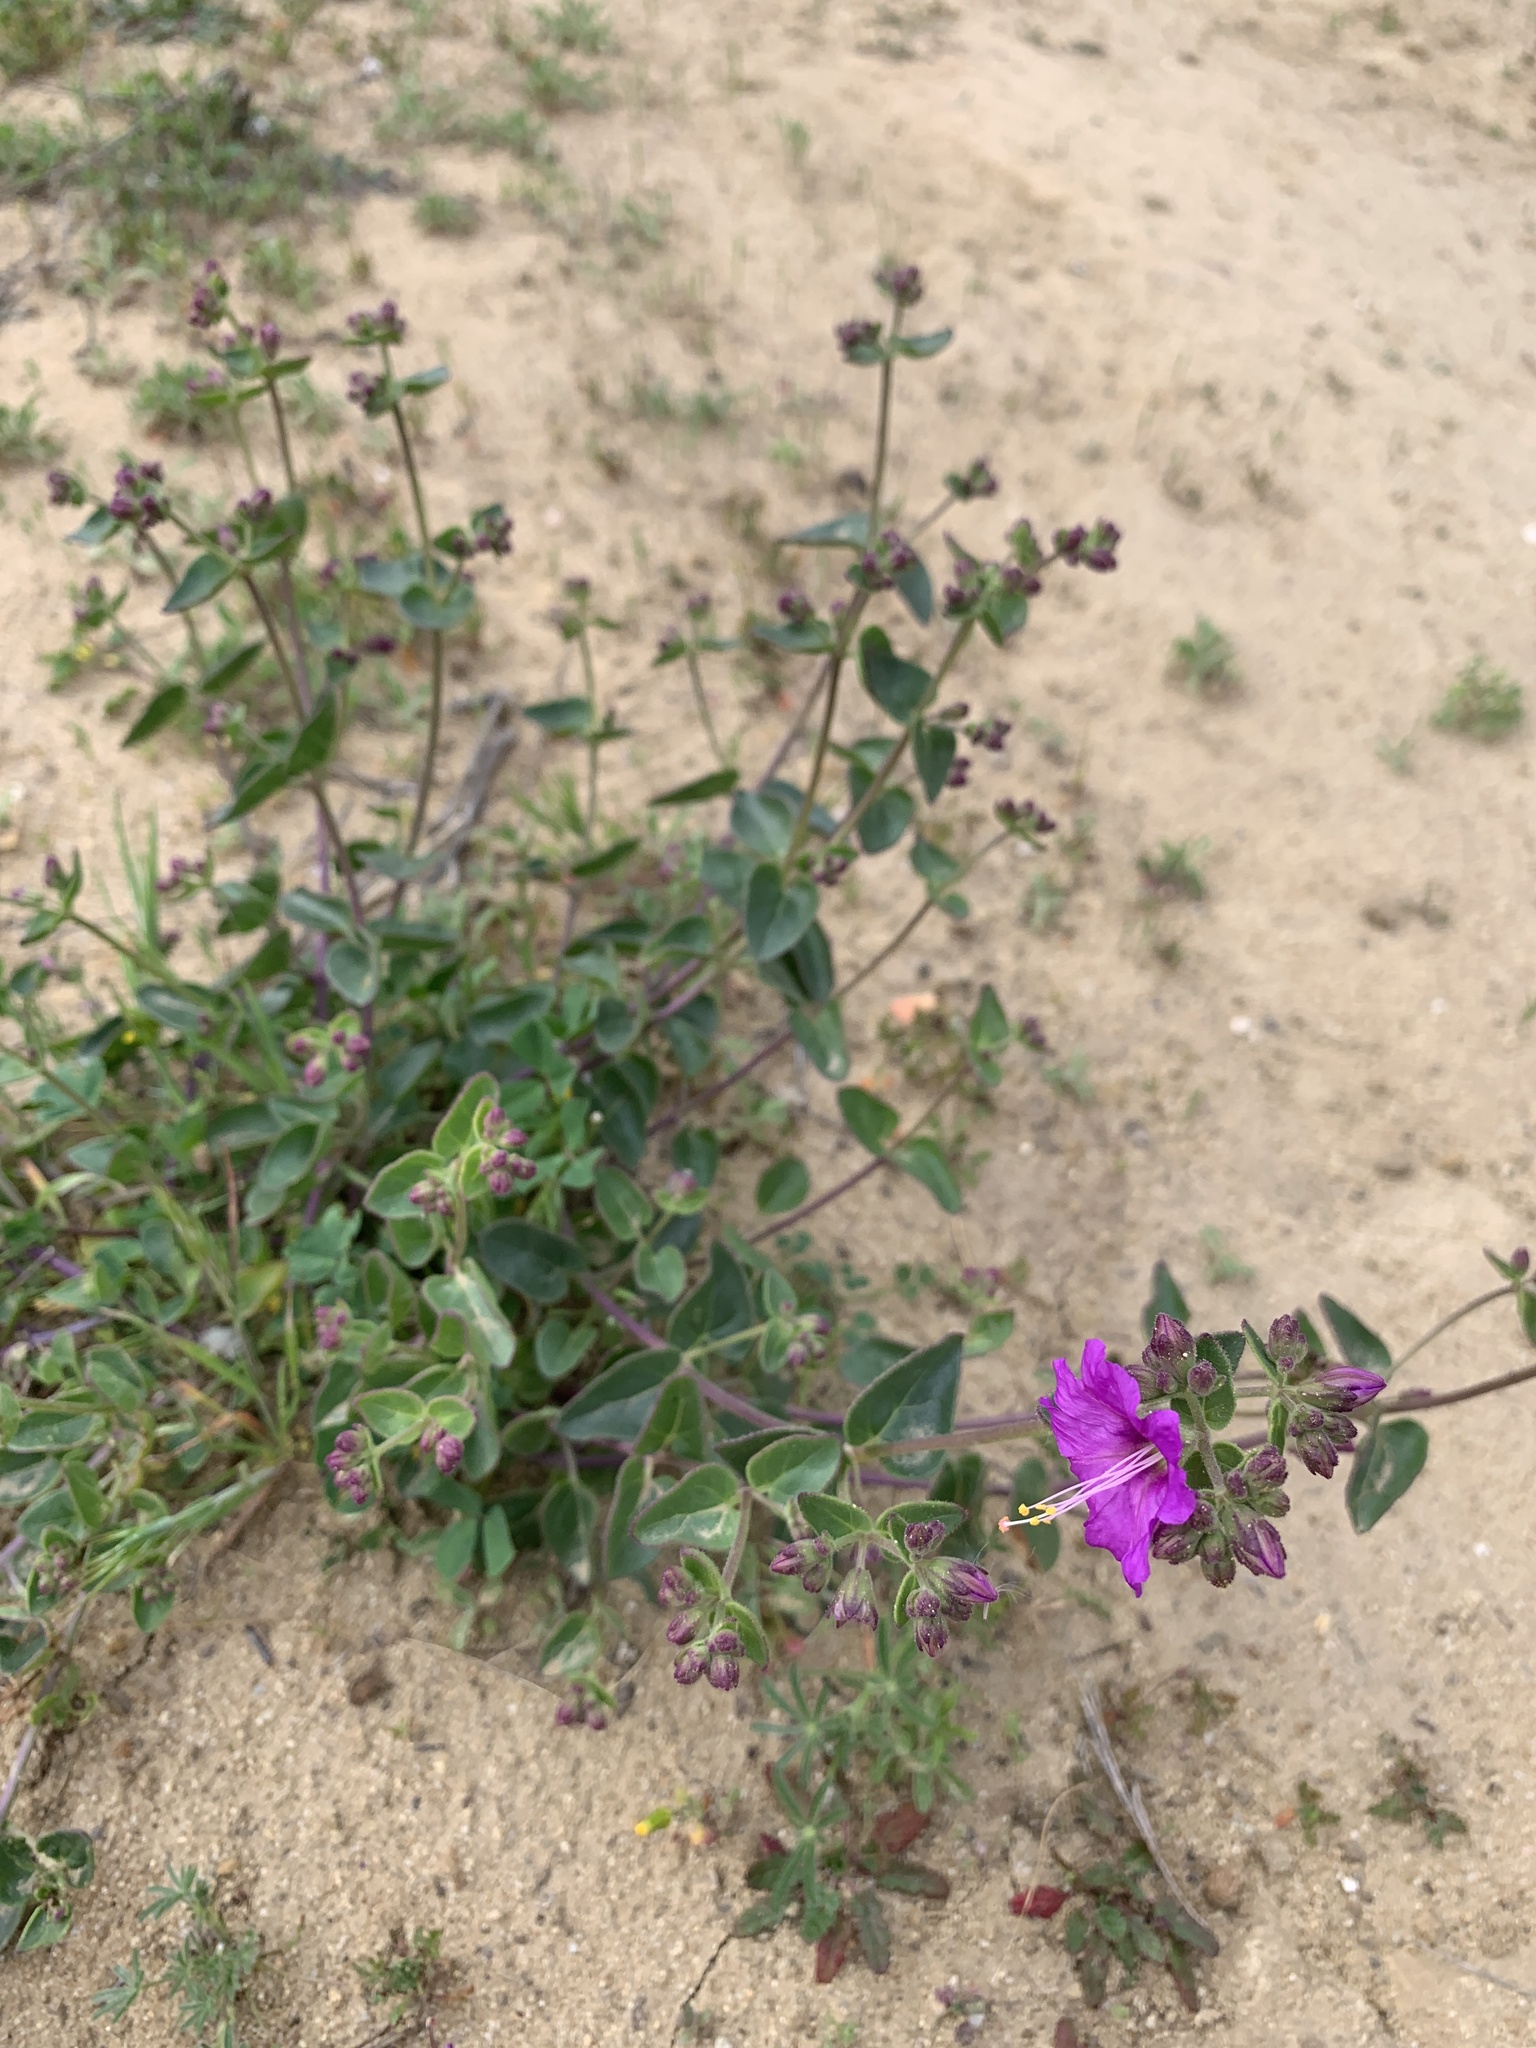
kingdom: Plantae
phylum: Tracheophyta
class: Magnoliopsida
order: Caryophyllales
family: Nyctaginaceae
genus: Mirabilis
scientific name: Mirabilis laevis
